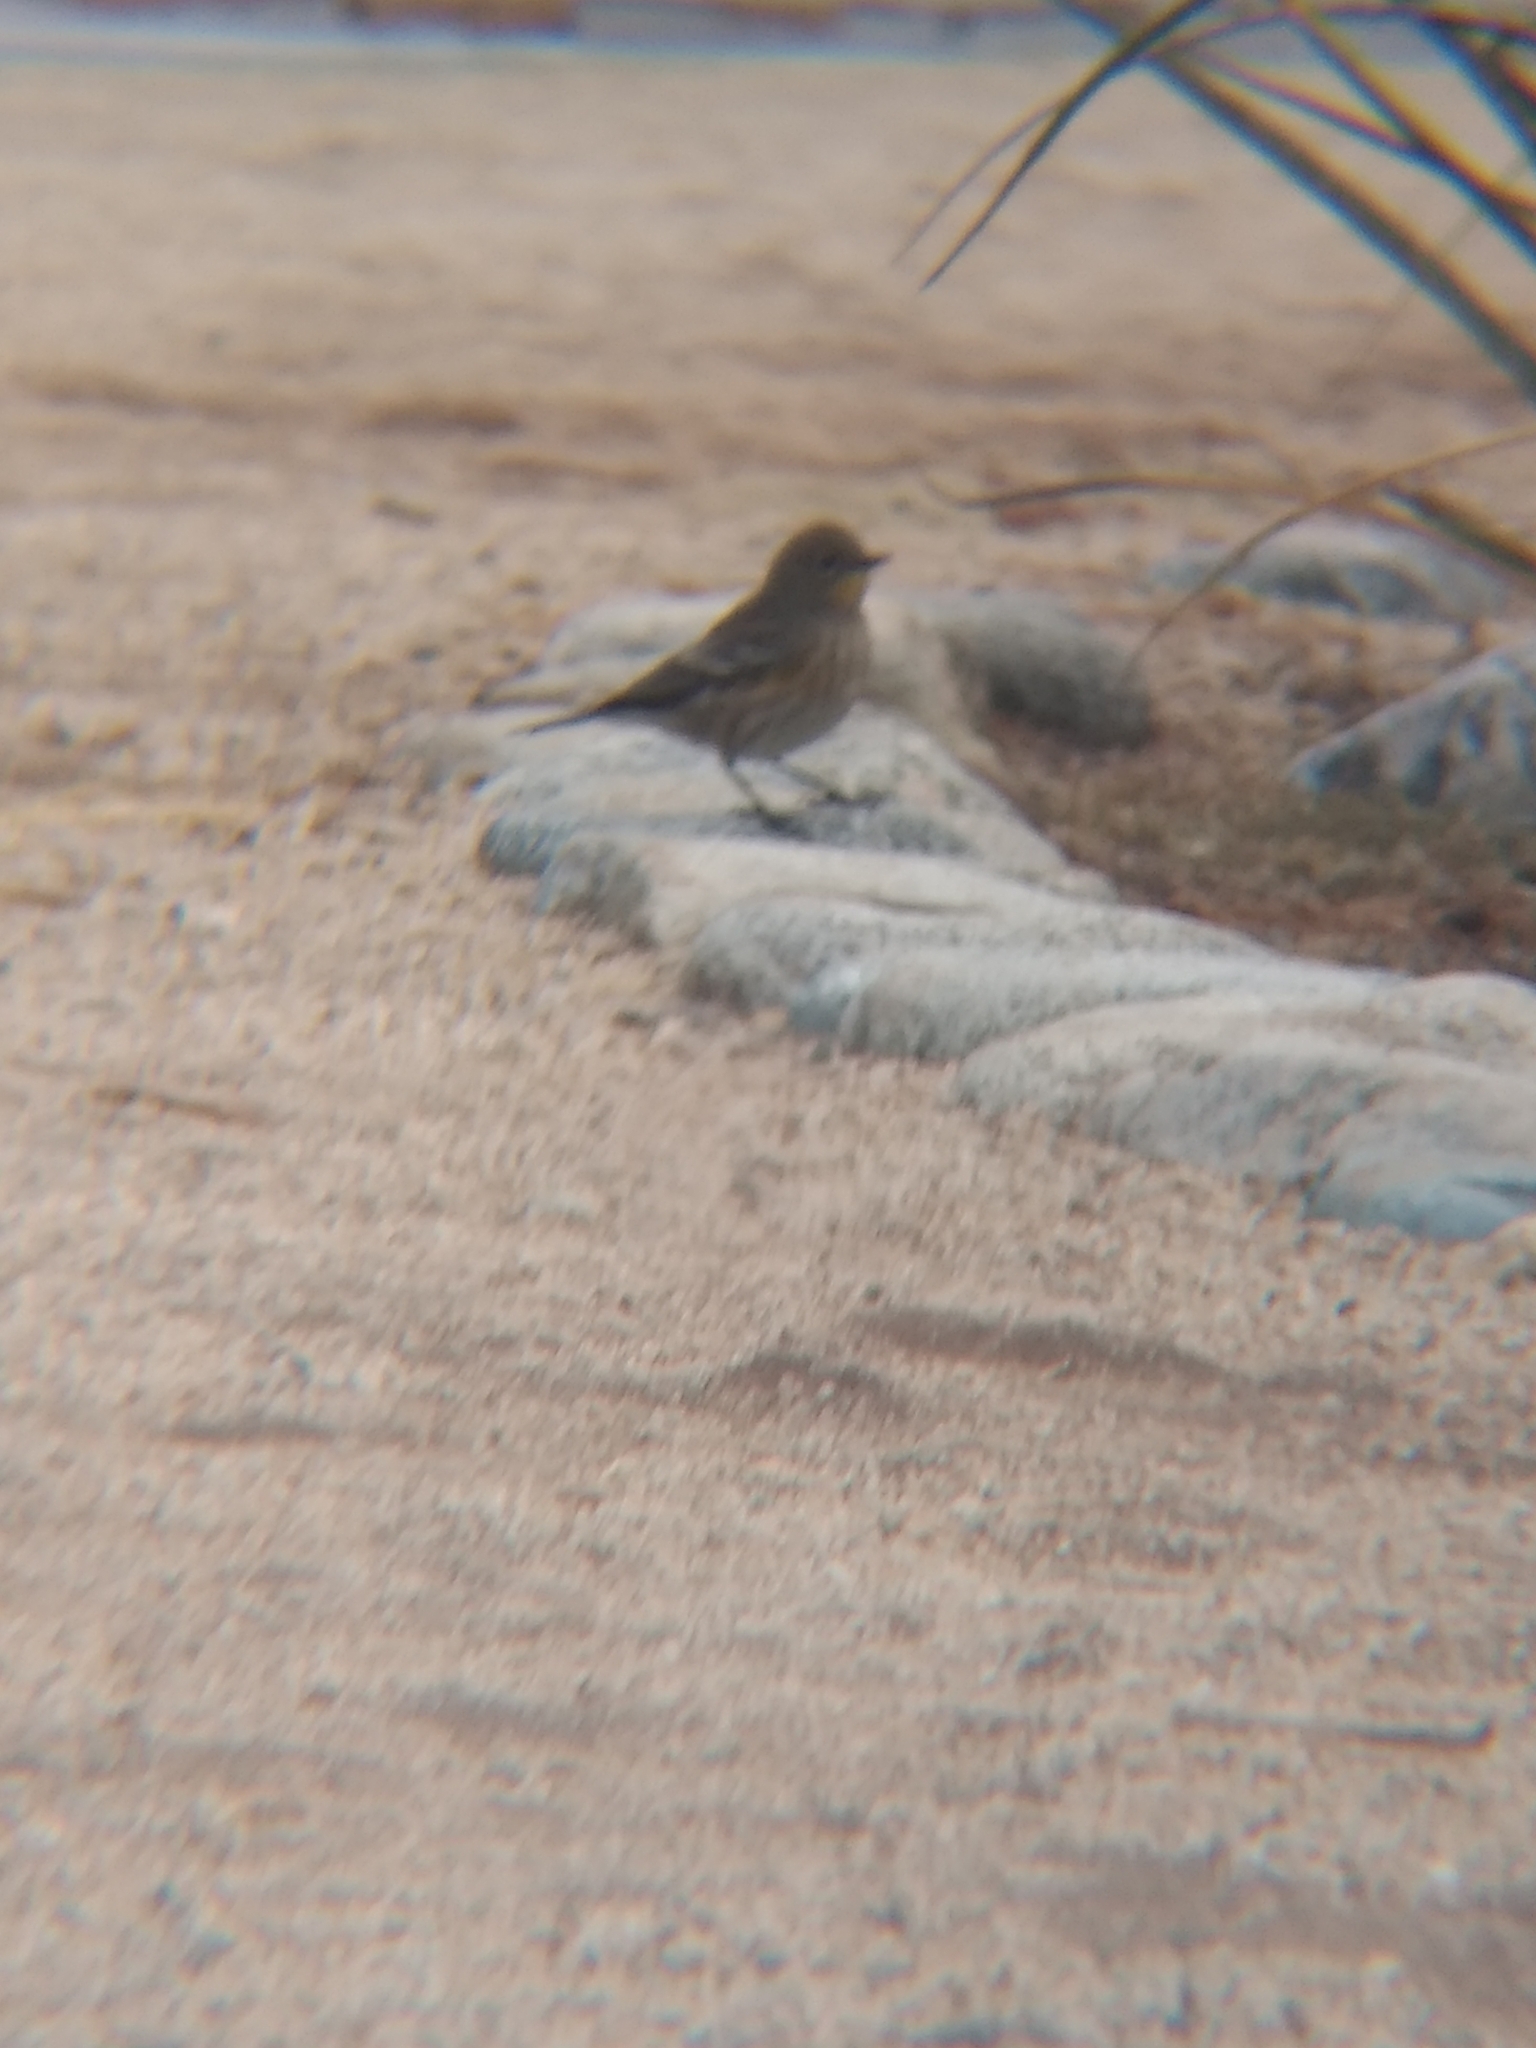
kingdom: Animalia
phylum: Chordata
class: Aves
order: Passeriformes
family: Parulidae
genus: Setophaga
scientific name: Setophaga coronata
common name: Myrtle warbler
